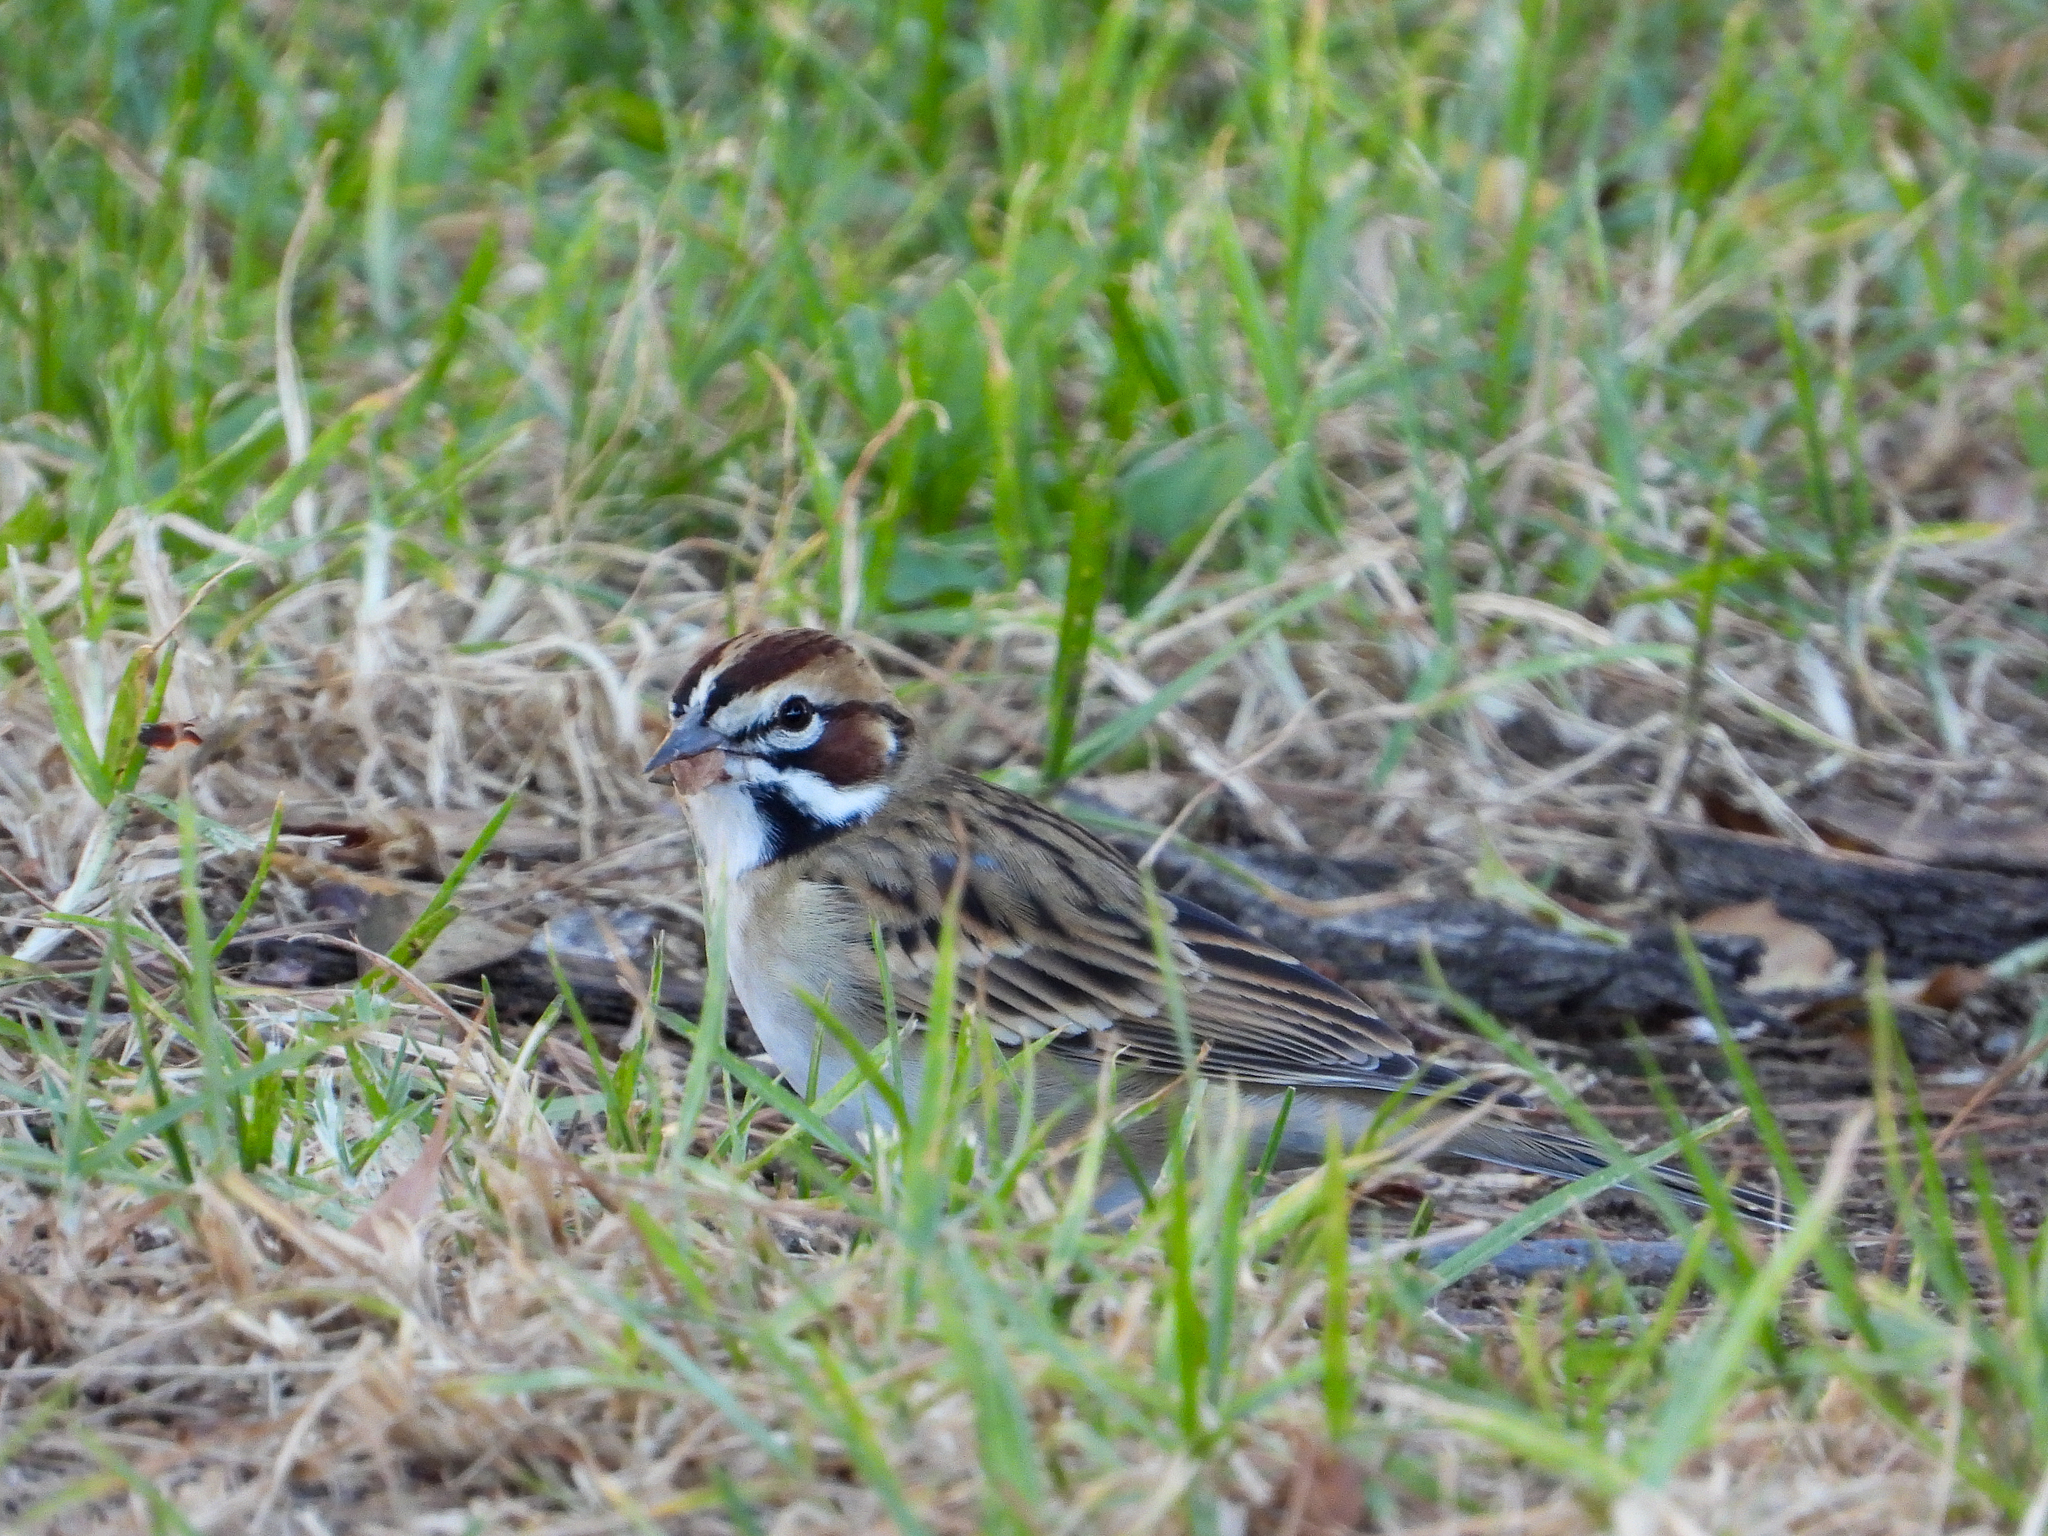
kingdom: Animalia
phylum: Chordata
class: Aves
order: Passeriformes
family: Passerellidae
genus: Chondestes
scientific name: Chondestes grammacus
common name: Lark sparrow
